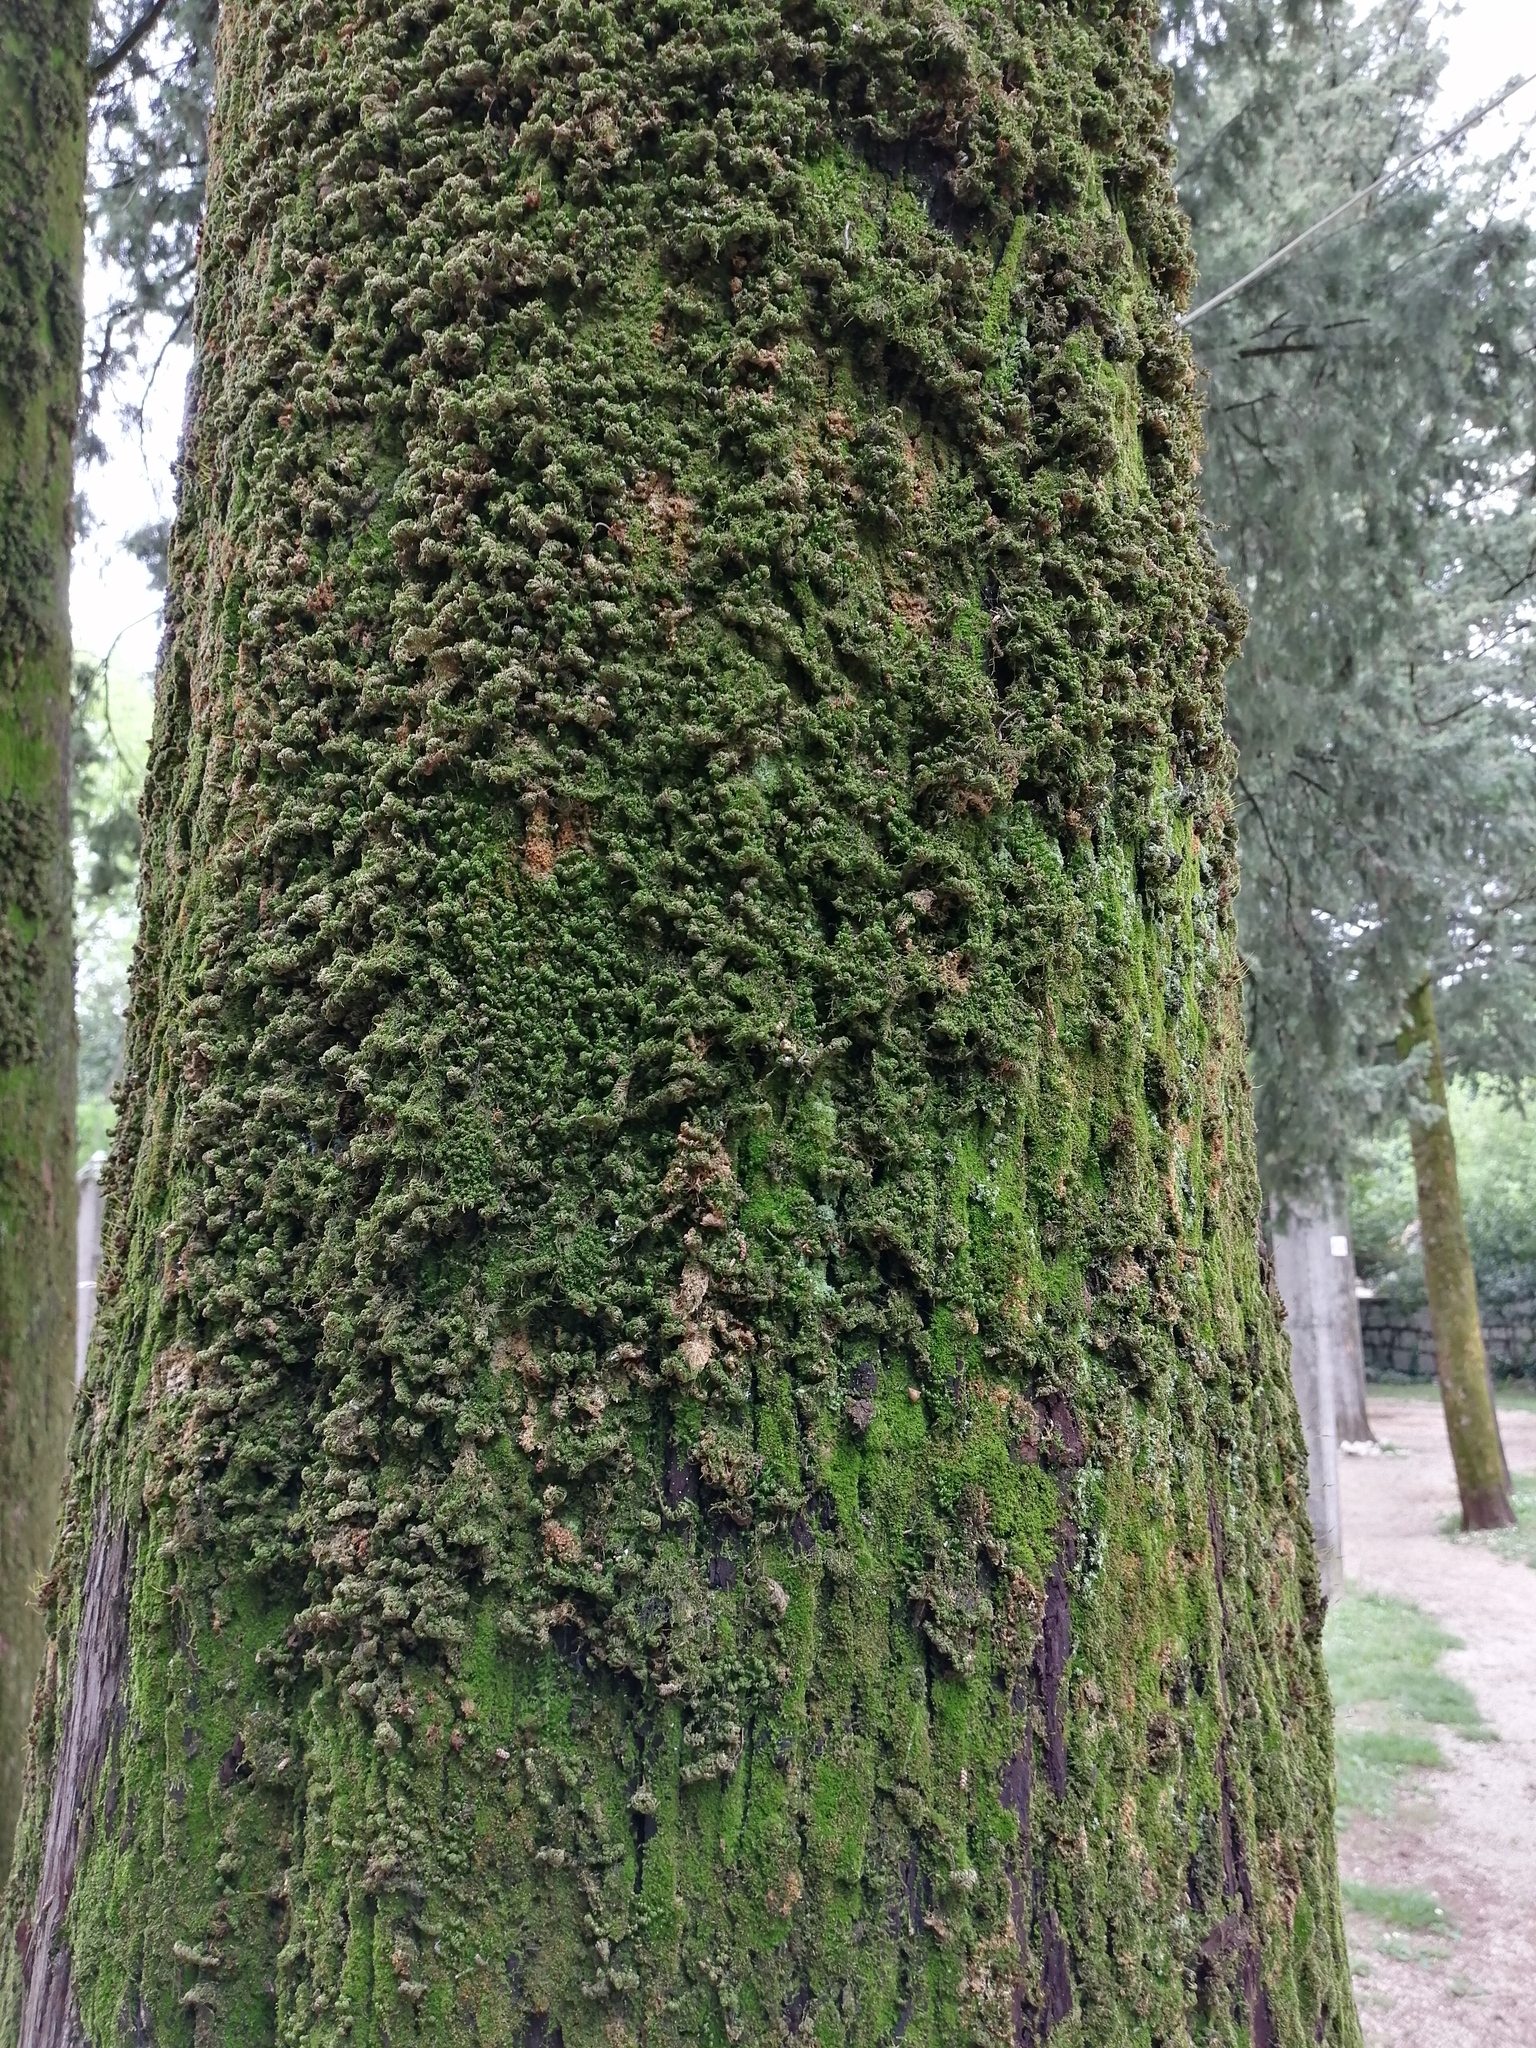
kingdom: Plantae
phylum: Bryophyta
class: Bryopsida
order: Hypnales
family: Neckeraceae
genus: Leptodon
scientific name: Leptodon smithii
